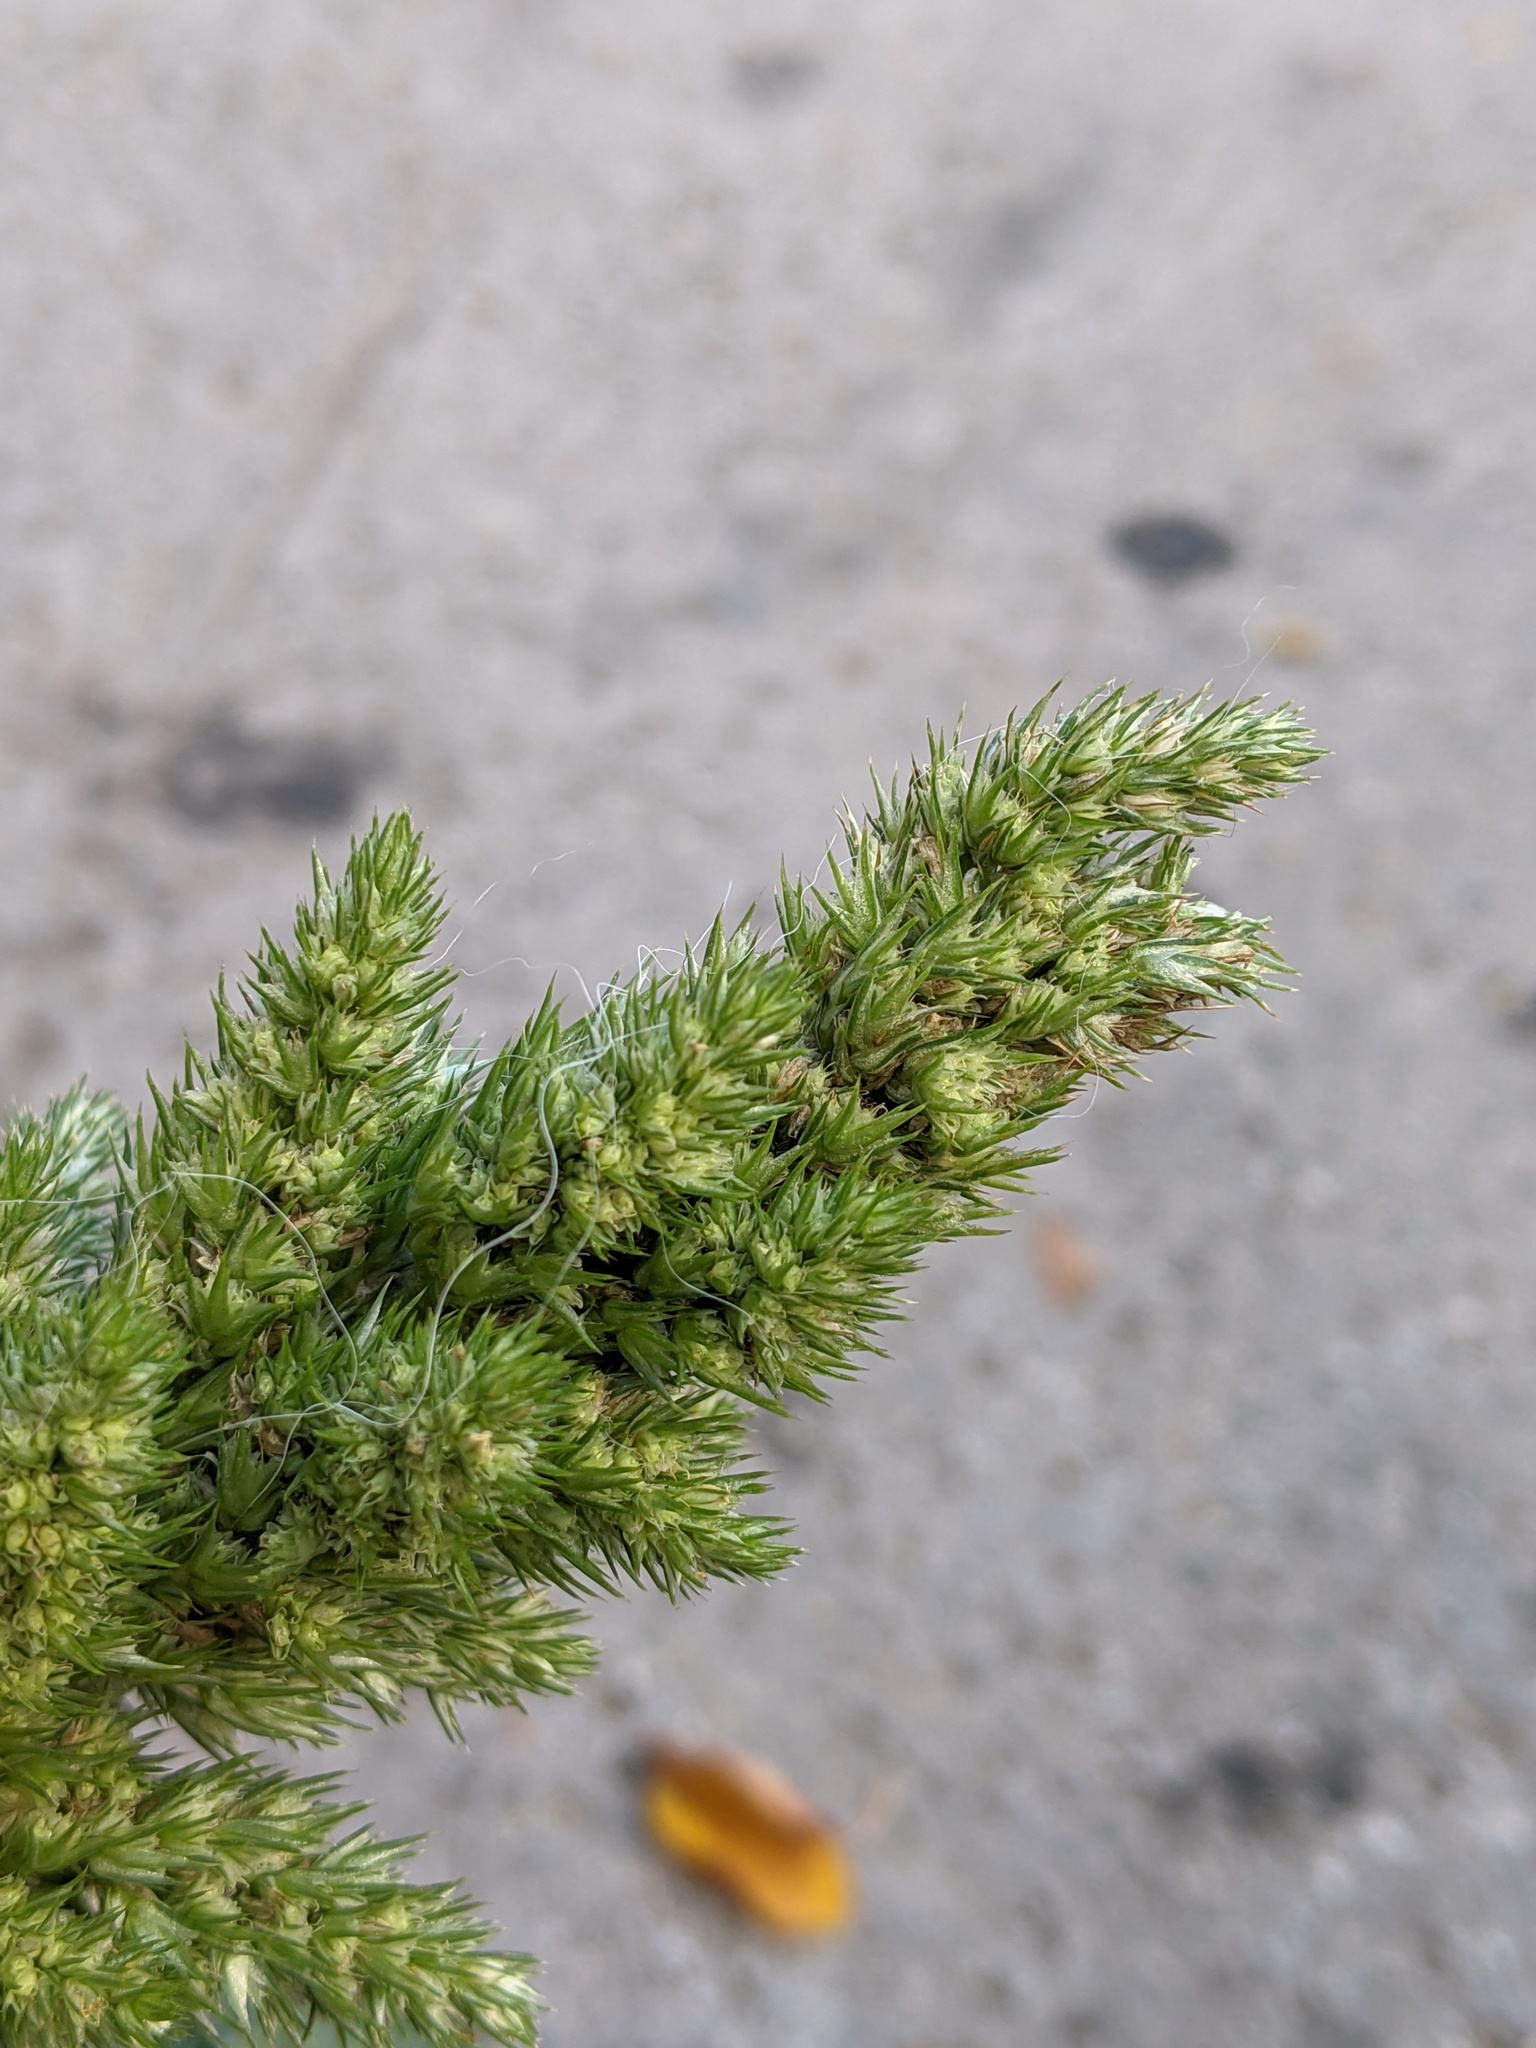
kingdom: Plantae
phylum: Tracheophyta
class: Magnoliopsida
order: Caryophyllales
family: Amaranthaceae
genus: Amaranthus
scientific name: Amaranthus retroflexus
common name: Redroot amaranth
